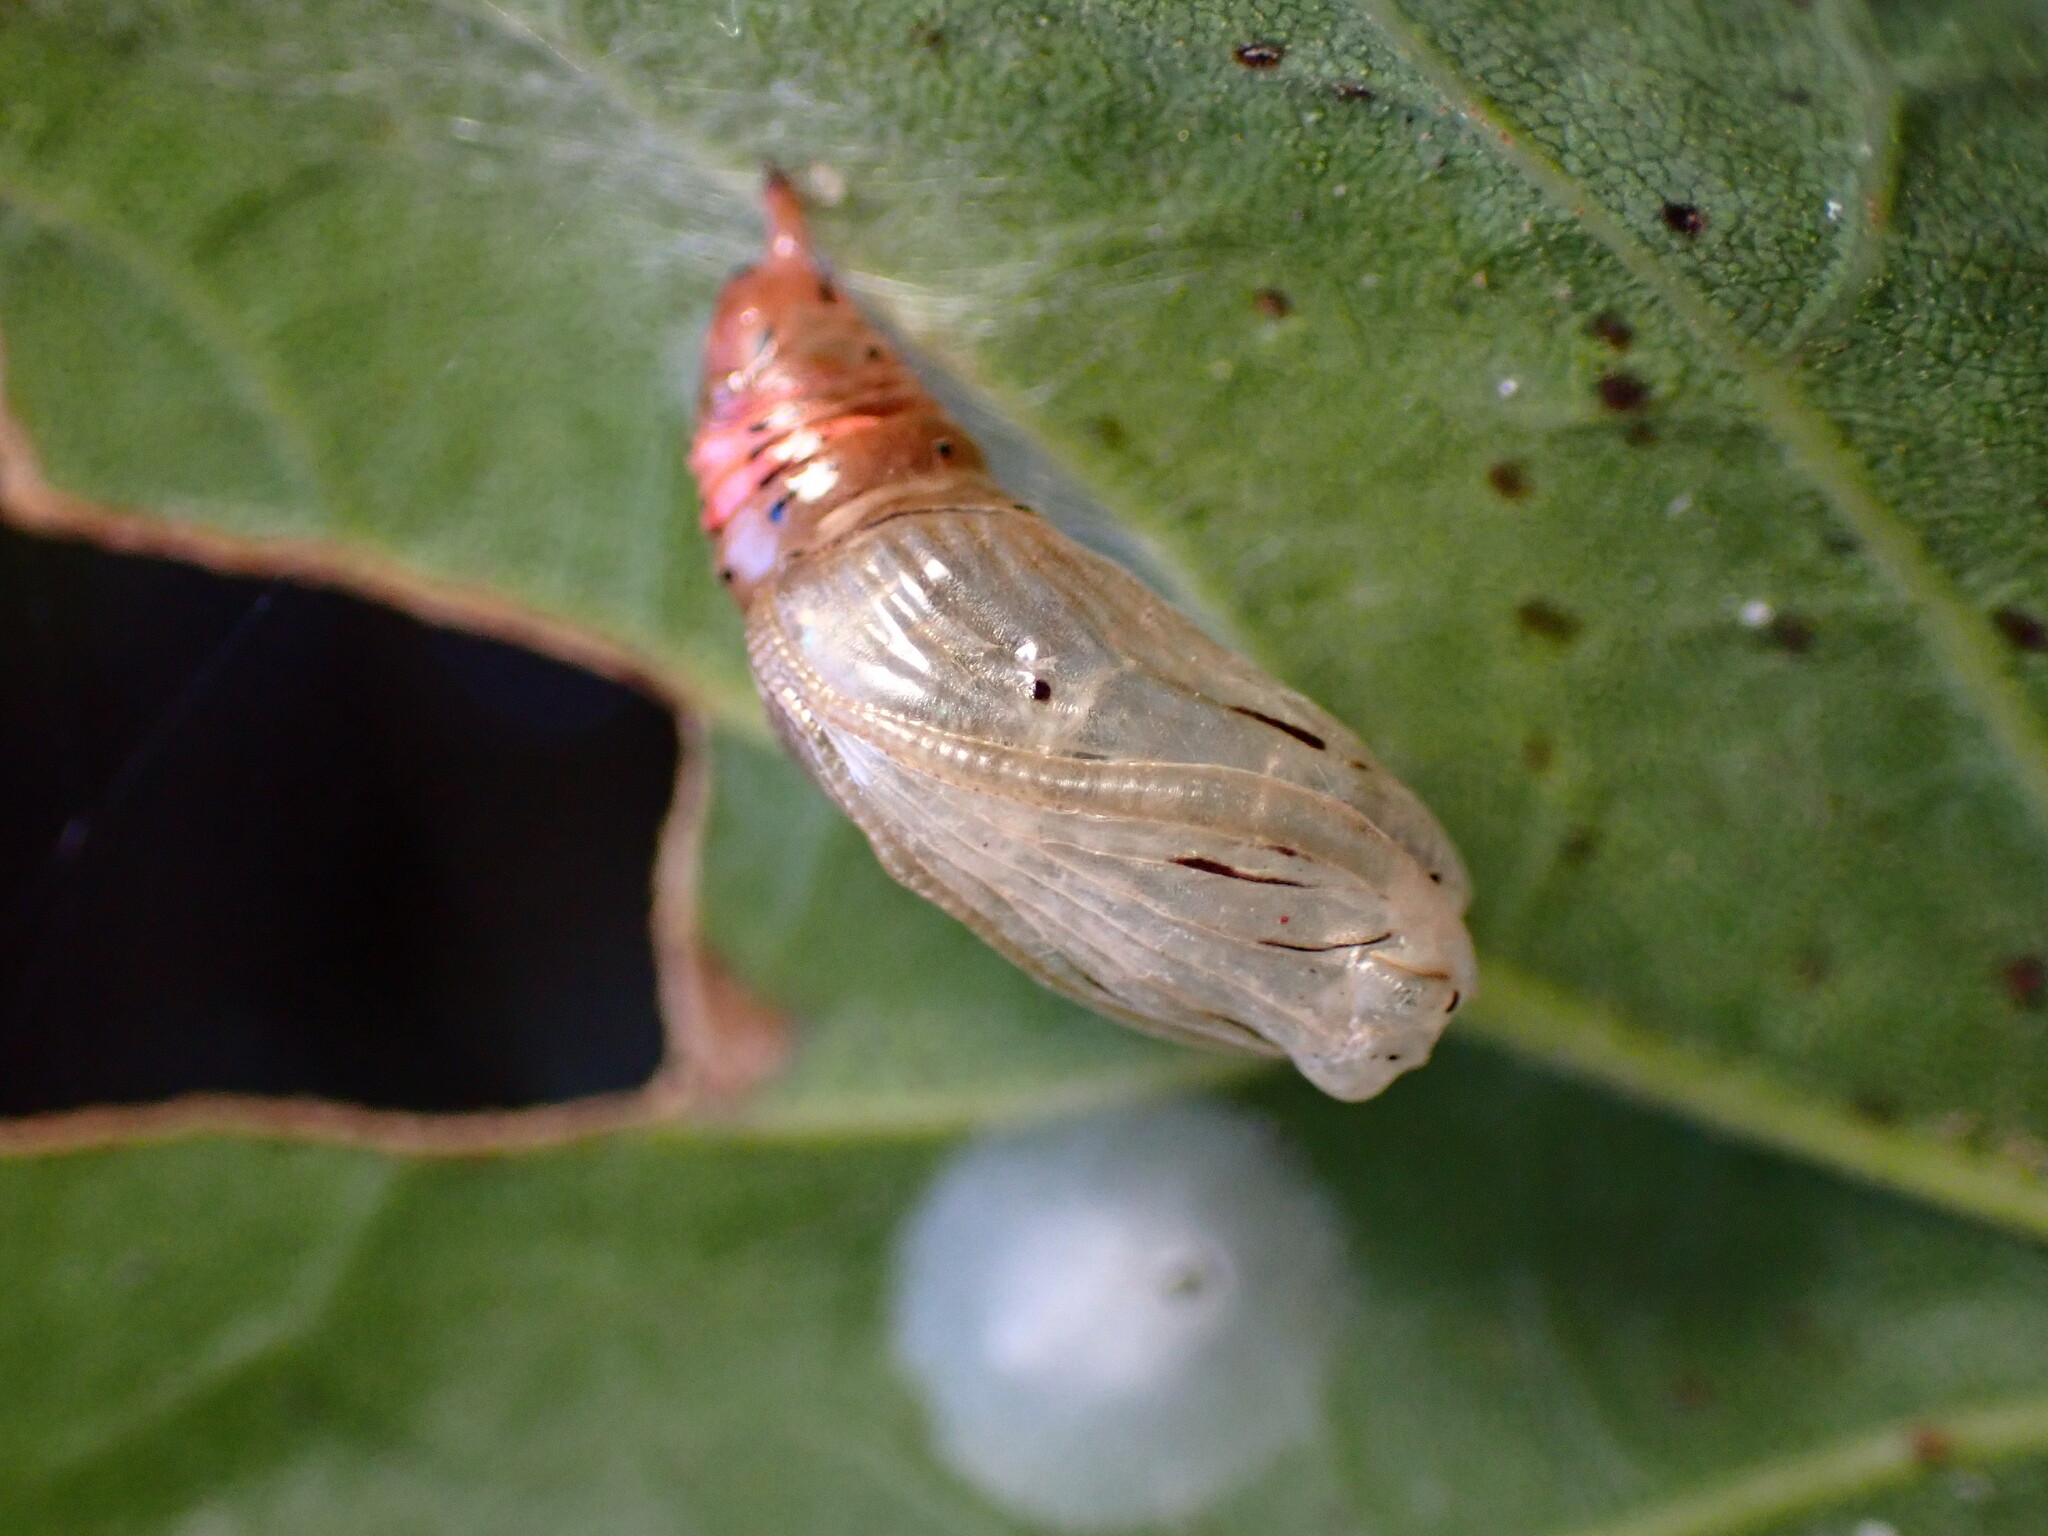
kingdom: Animalia
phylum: Arthropoda
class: Insecta
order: Lepidoptera
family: Notodontidae
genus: Phryganidia
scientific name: Phryganidia californica
